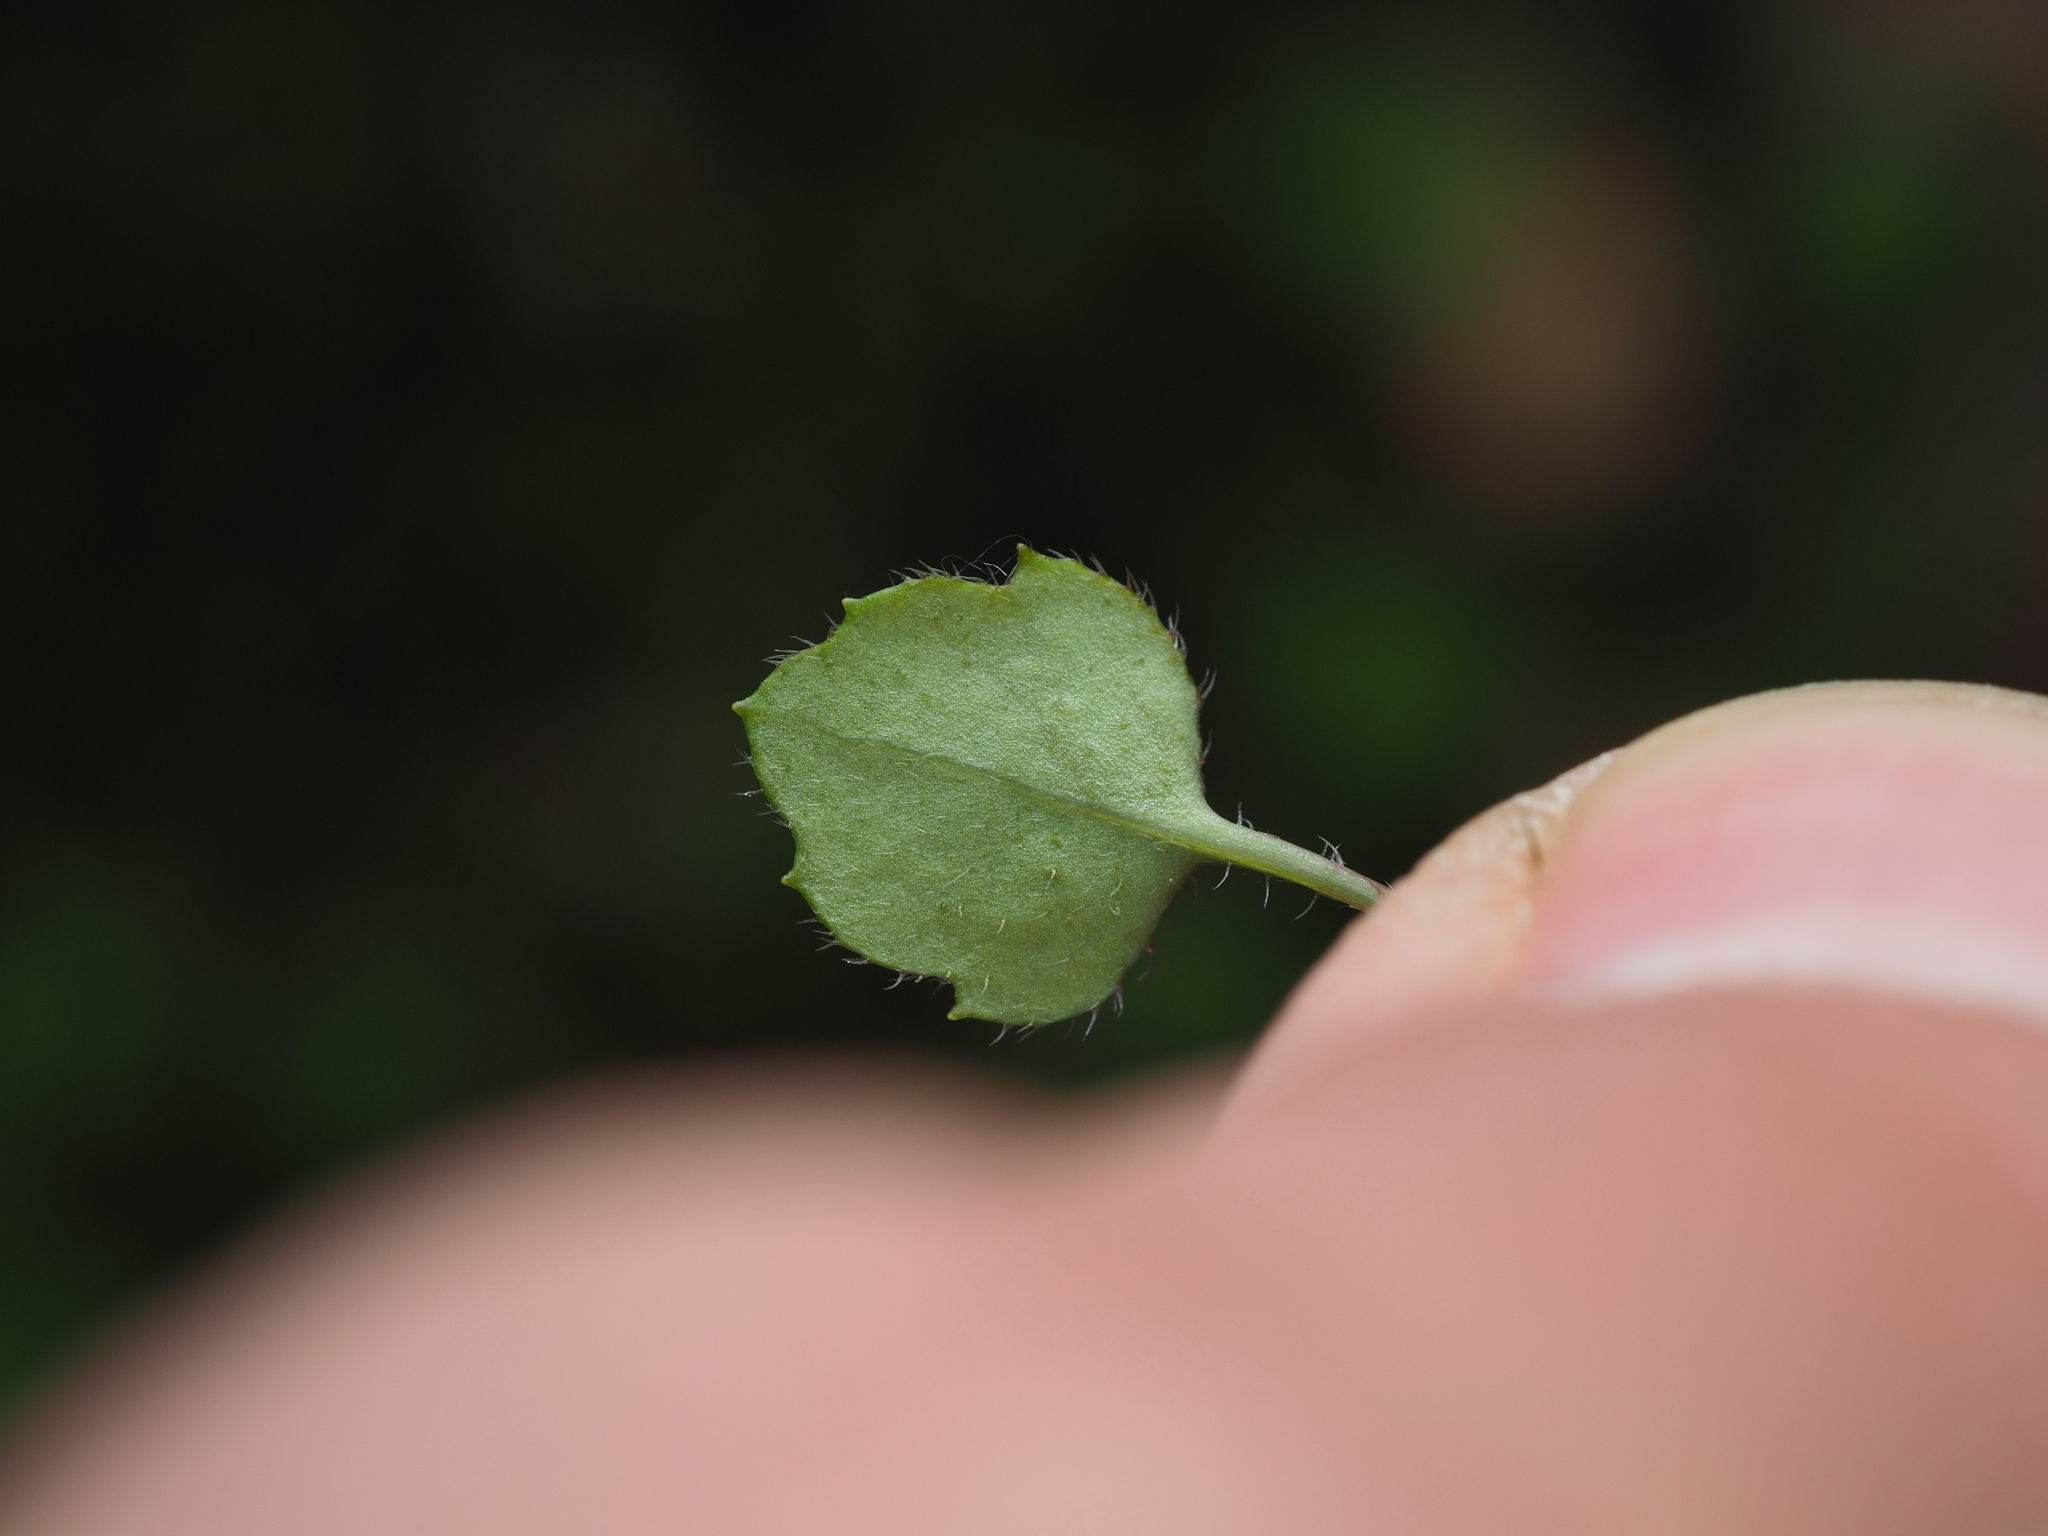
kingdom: Plantae
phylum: Tracheophyta
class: Magnoliopsida
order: Asterales
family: Asteraceae
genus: Lagenophora
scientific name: Lagenophora strangulata
